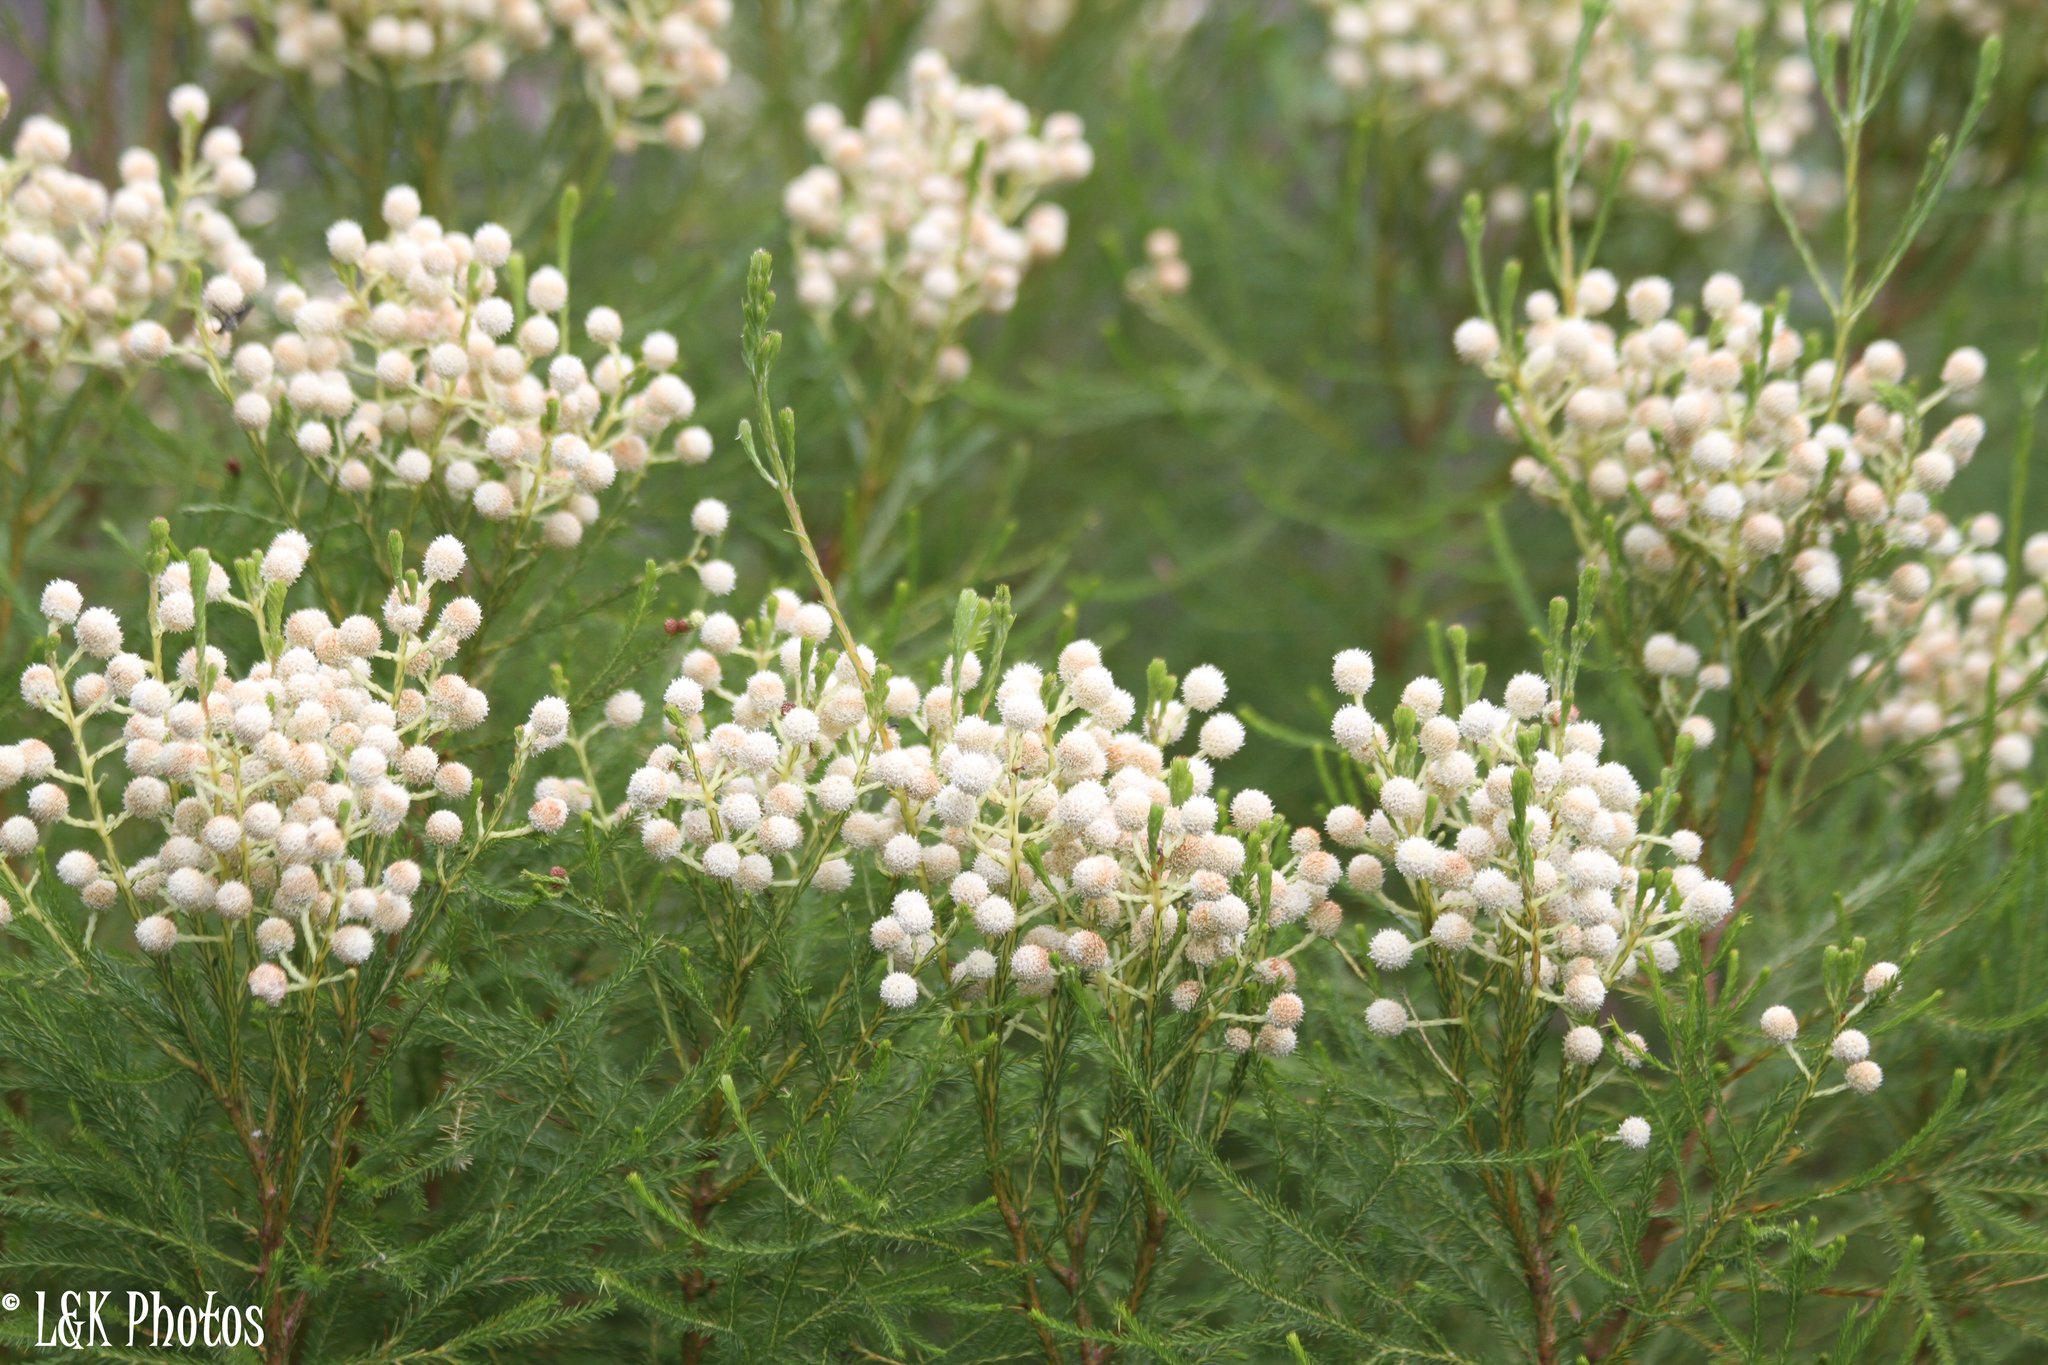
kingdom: Plantae
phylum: Tracheophyta
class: Magnoliopsida
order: Bruniales
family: Bruniaceae
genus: Berzelia
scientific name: Berzelia lanuginosa
